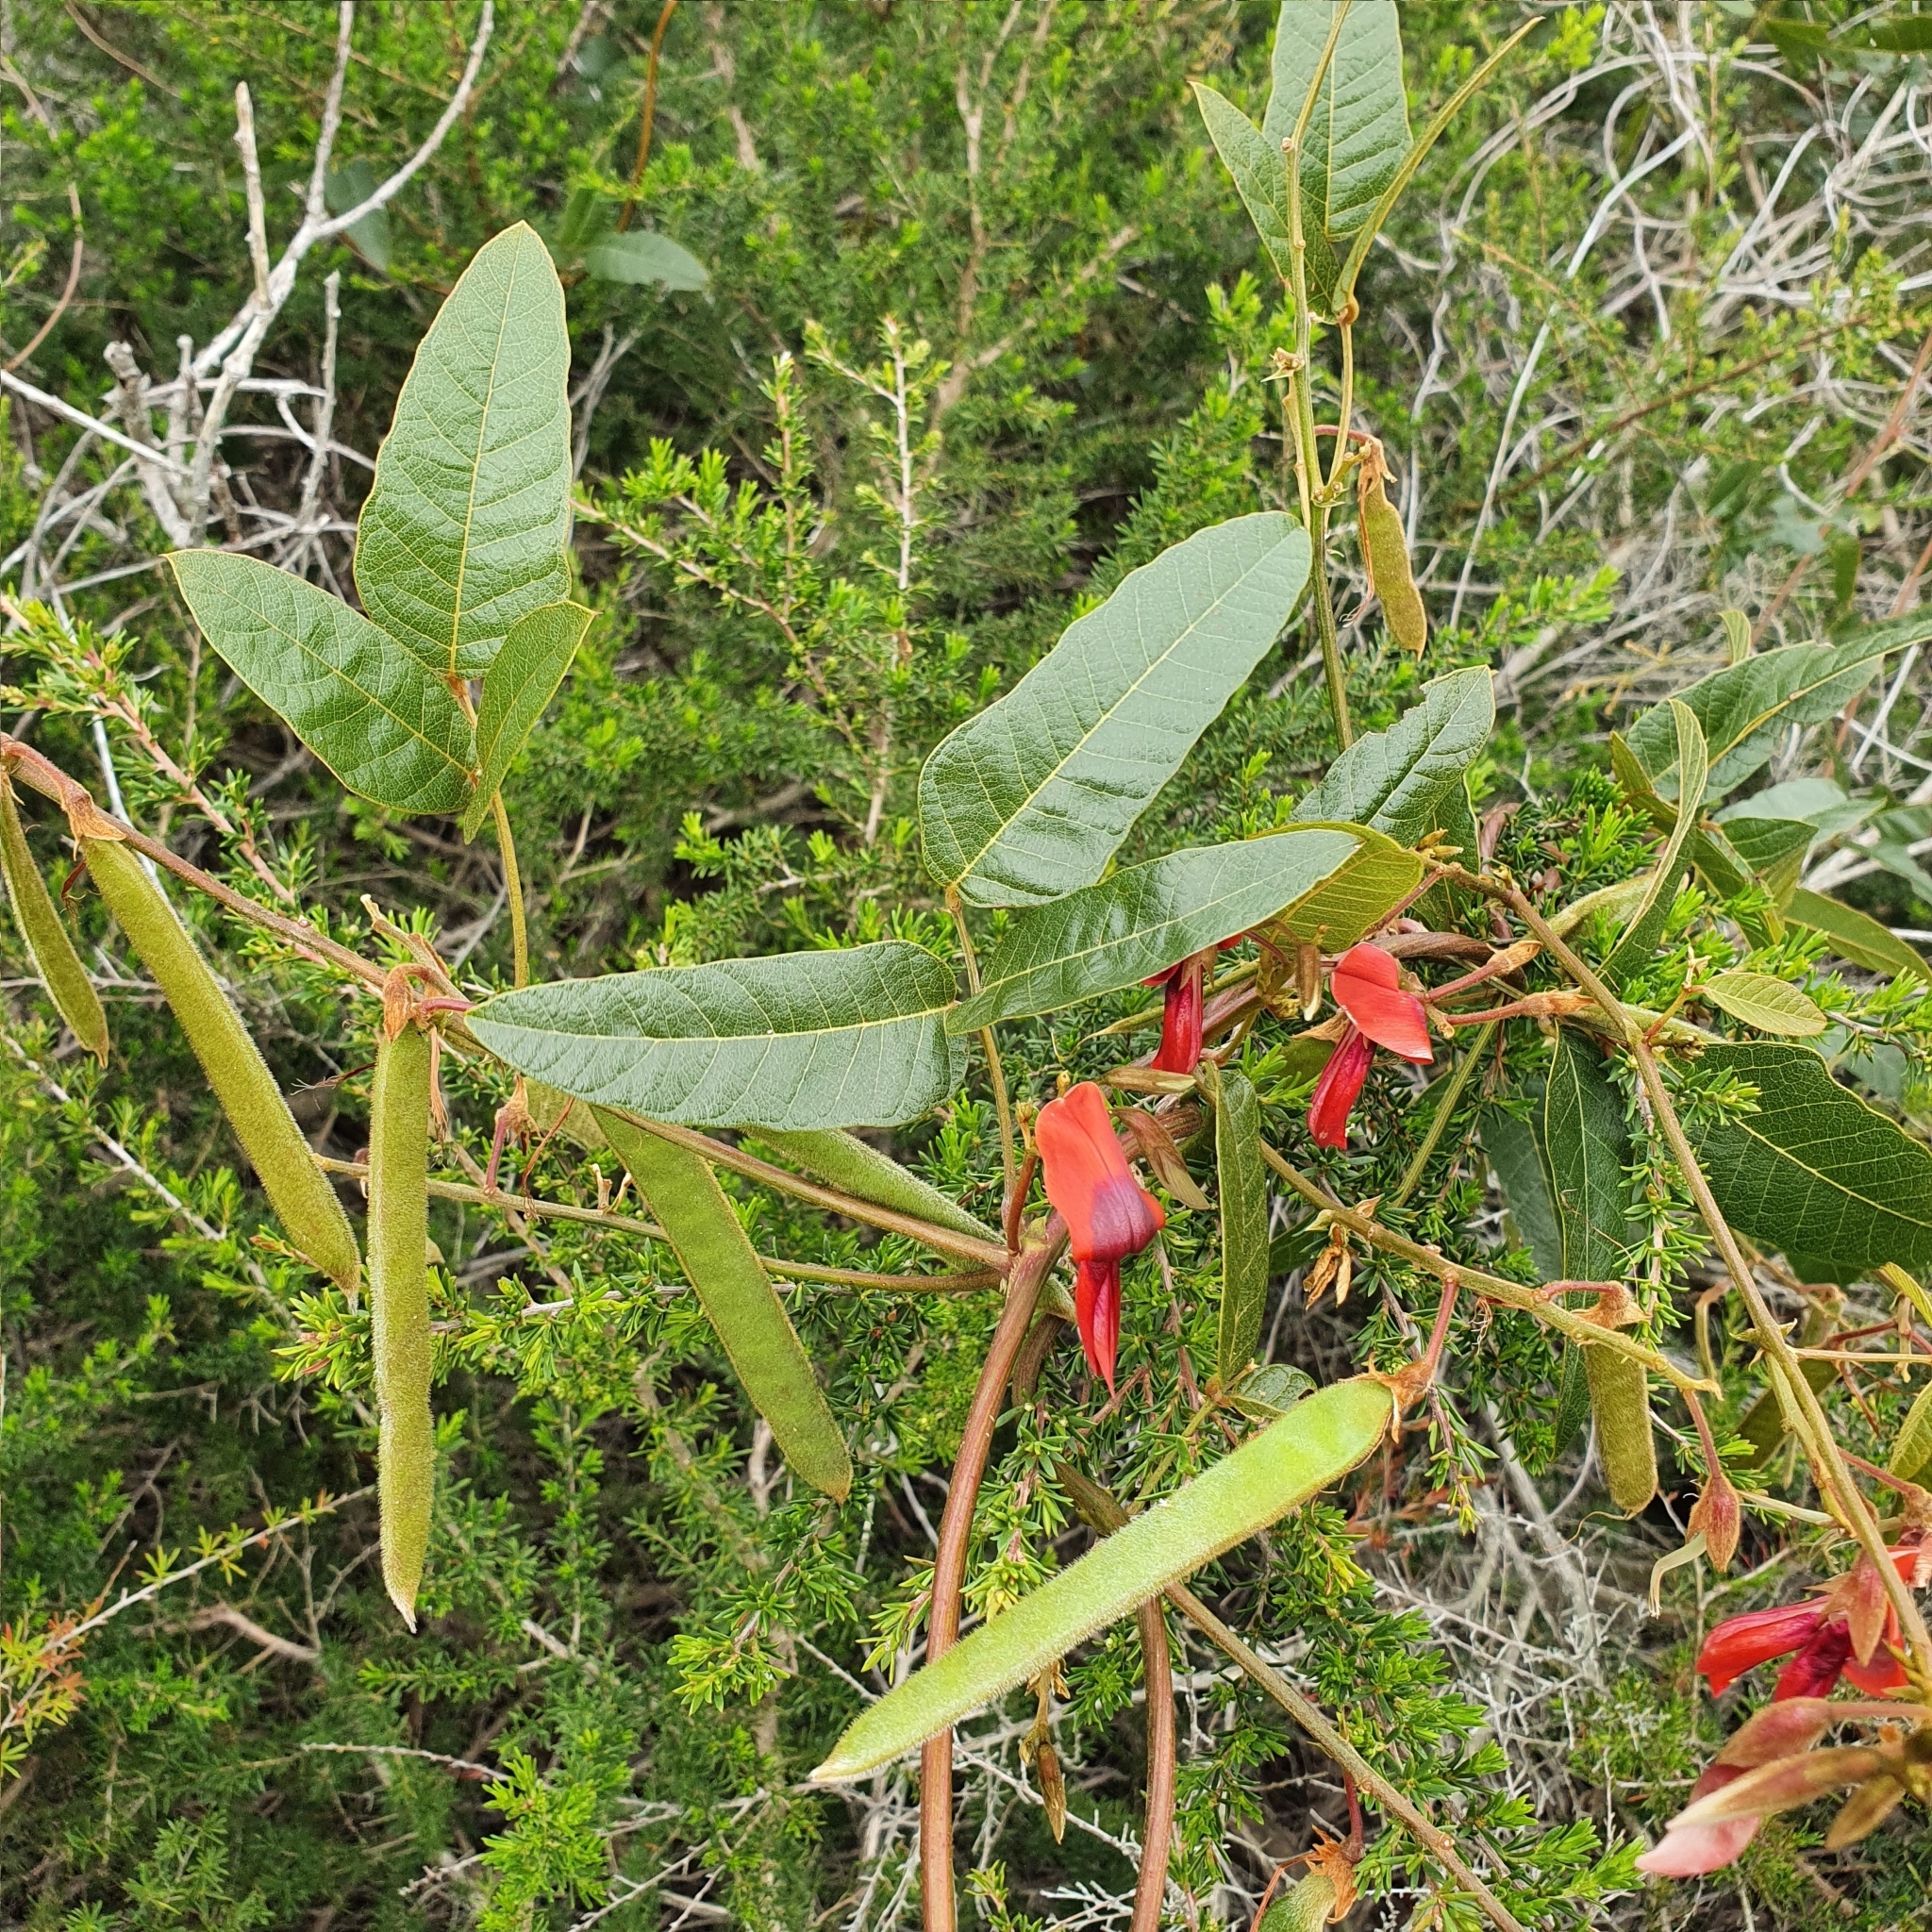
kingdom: Plantae
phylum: Tracheophyta
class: Magnoliopsida
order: Fabales
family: Fabaceae
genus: Kennedia
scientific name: Kennedia rubicunda
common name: Red kennedy-pea
